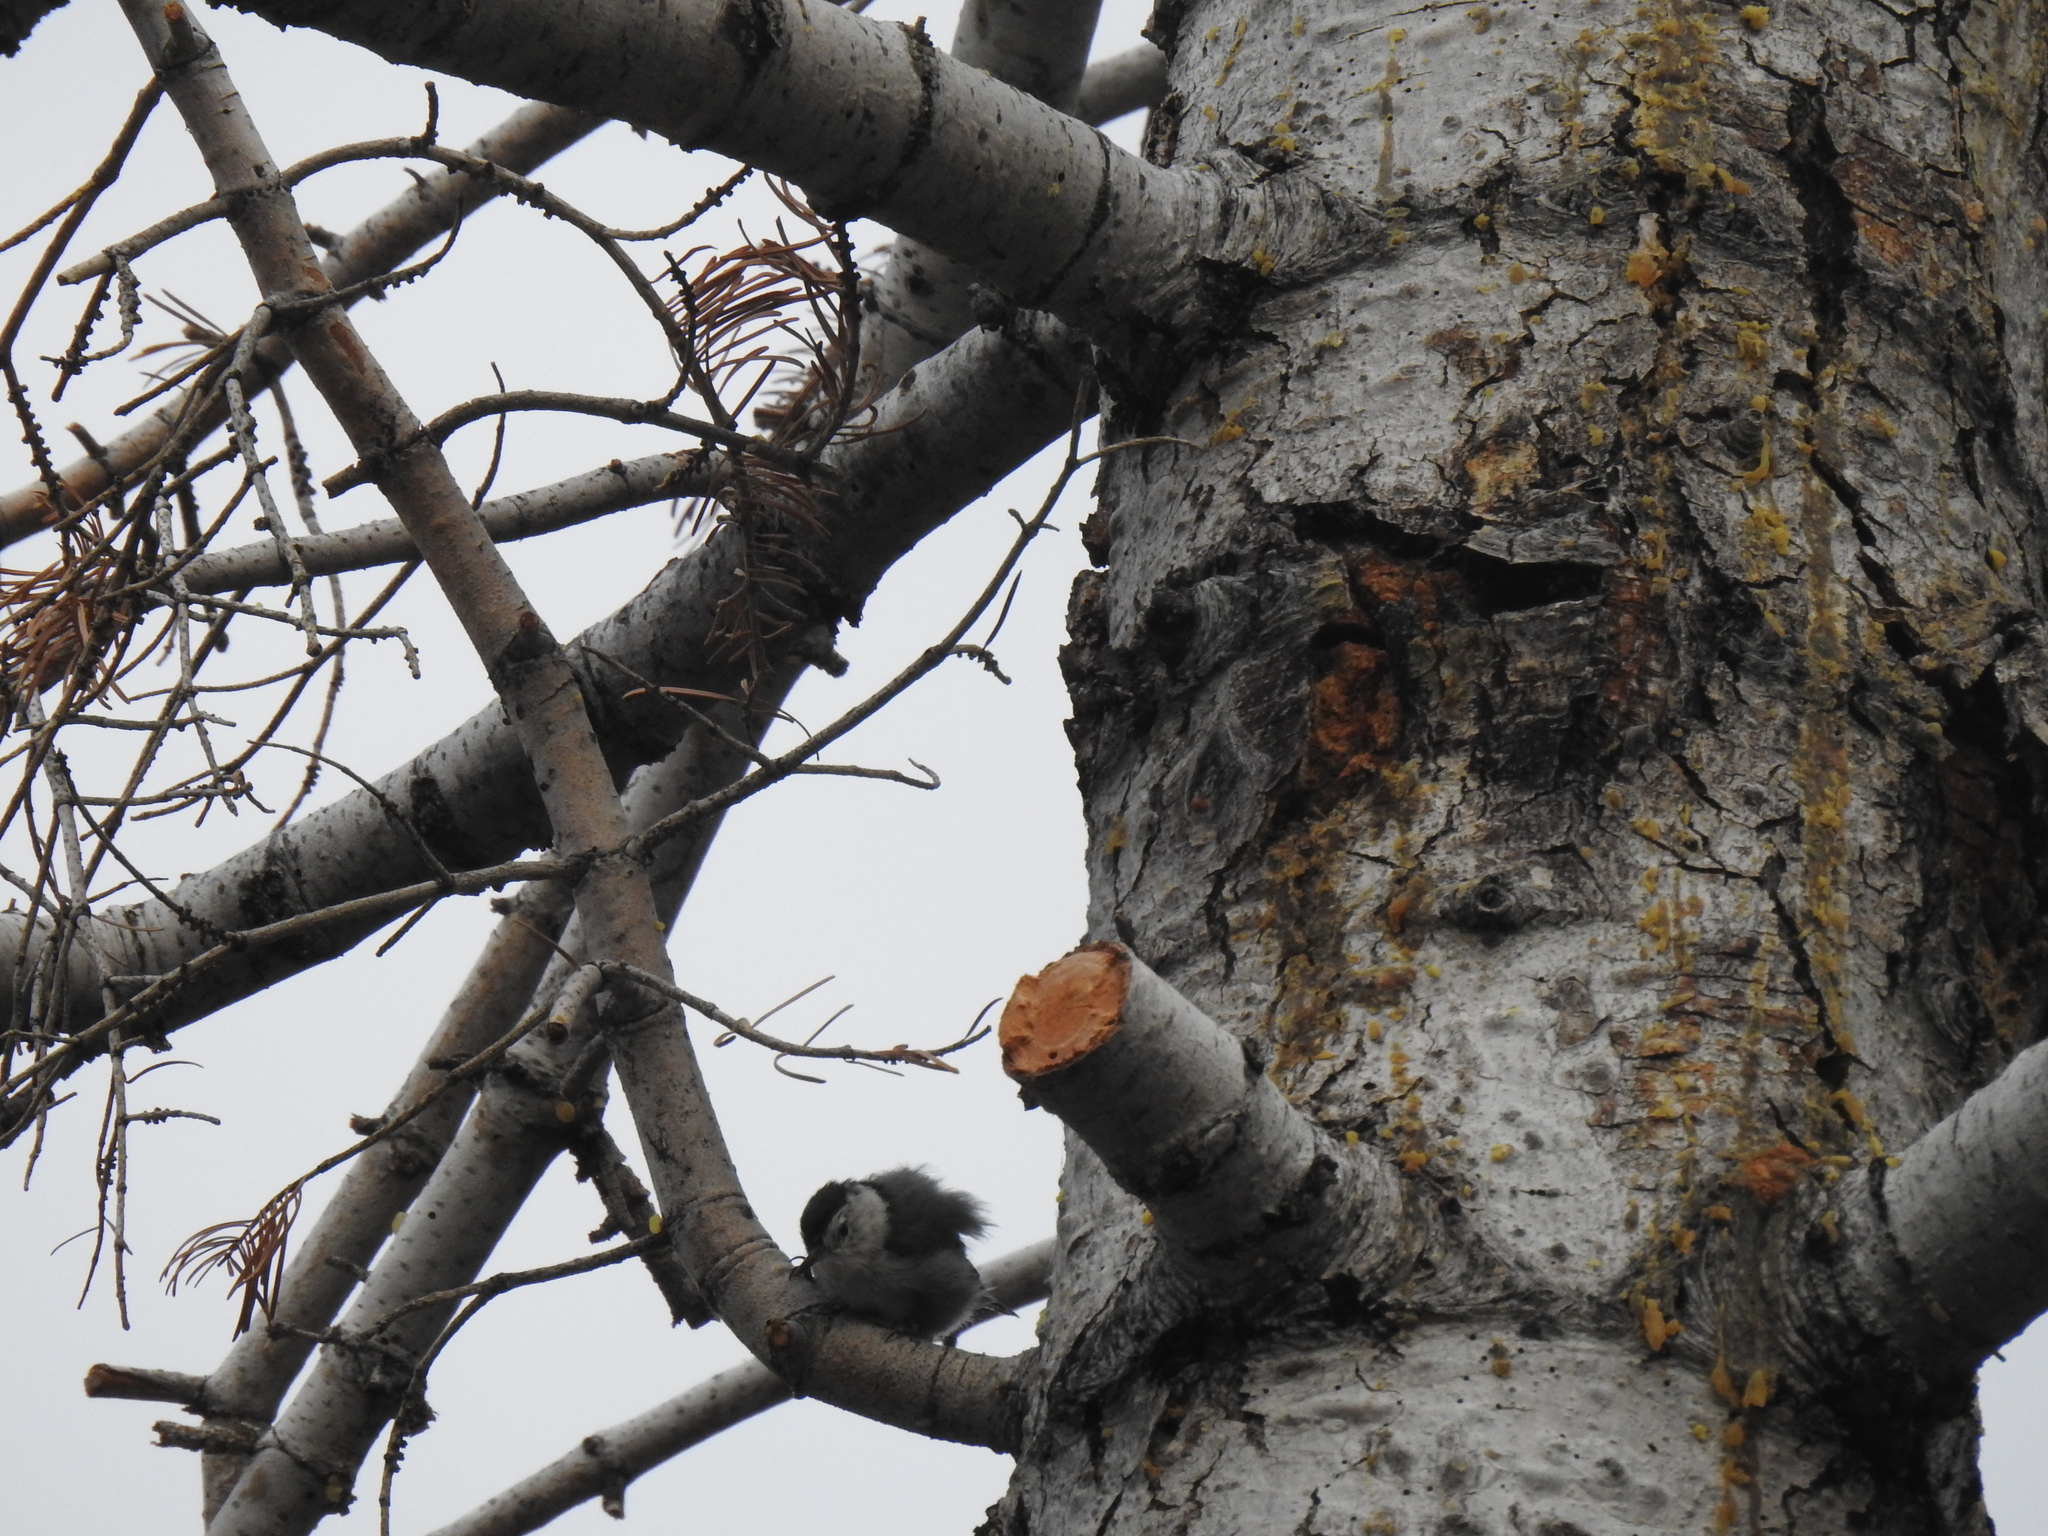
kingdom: Animalia
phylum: Chordata
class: Aves
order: Passeriformes
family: Sittidae
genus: Sitta
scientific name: Sitta carolinensis
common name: White-breasted nuthatch
